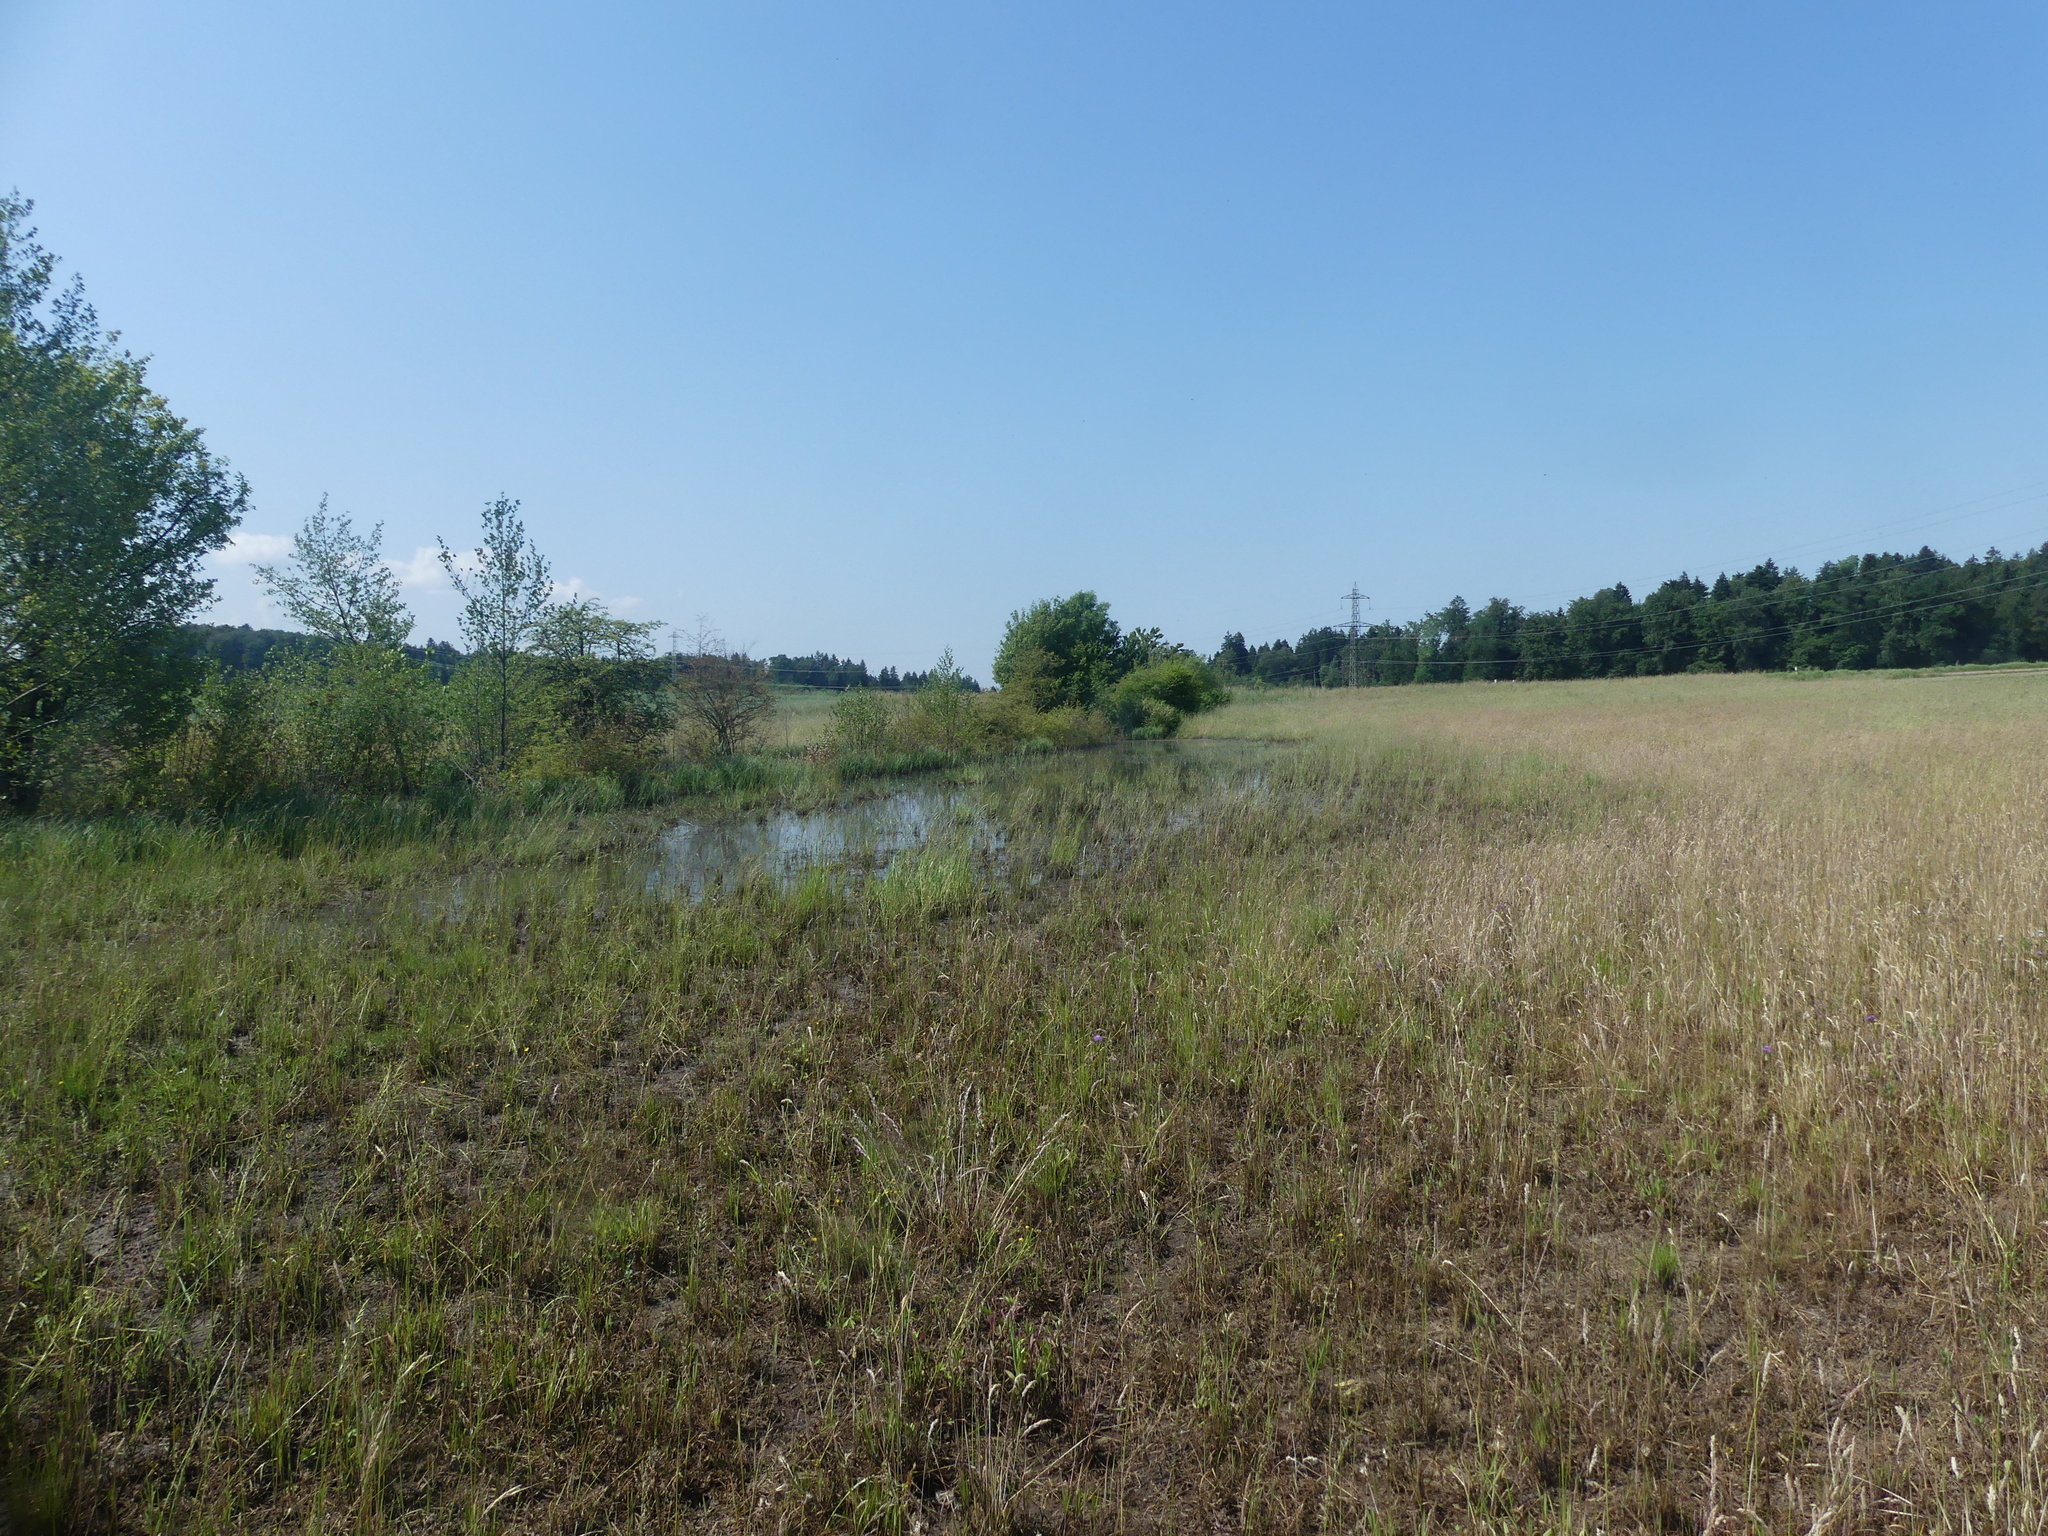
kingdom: Animalia
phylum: Chordata
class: Mammalia
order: Rodentia
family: Castoridae
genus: Castor
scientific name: Castor fiber
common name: Eurasian beaver
